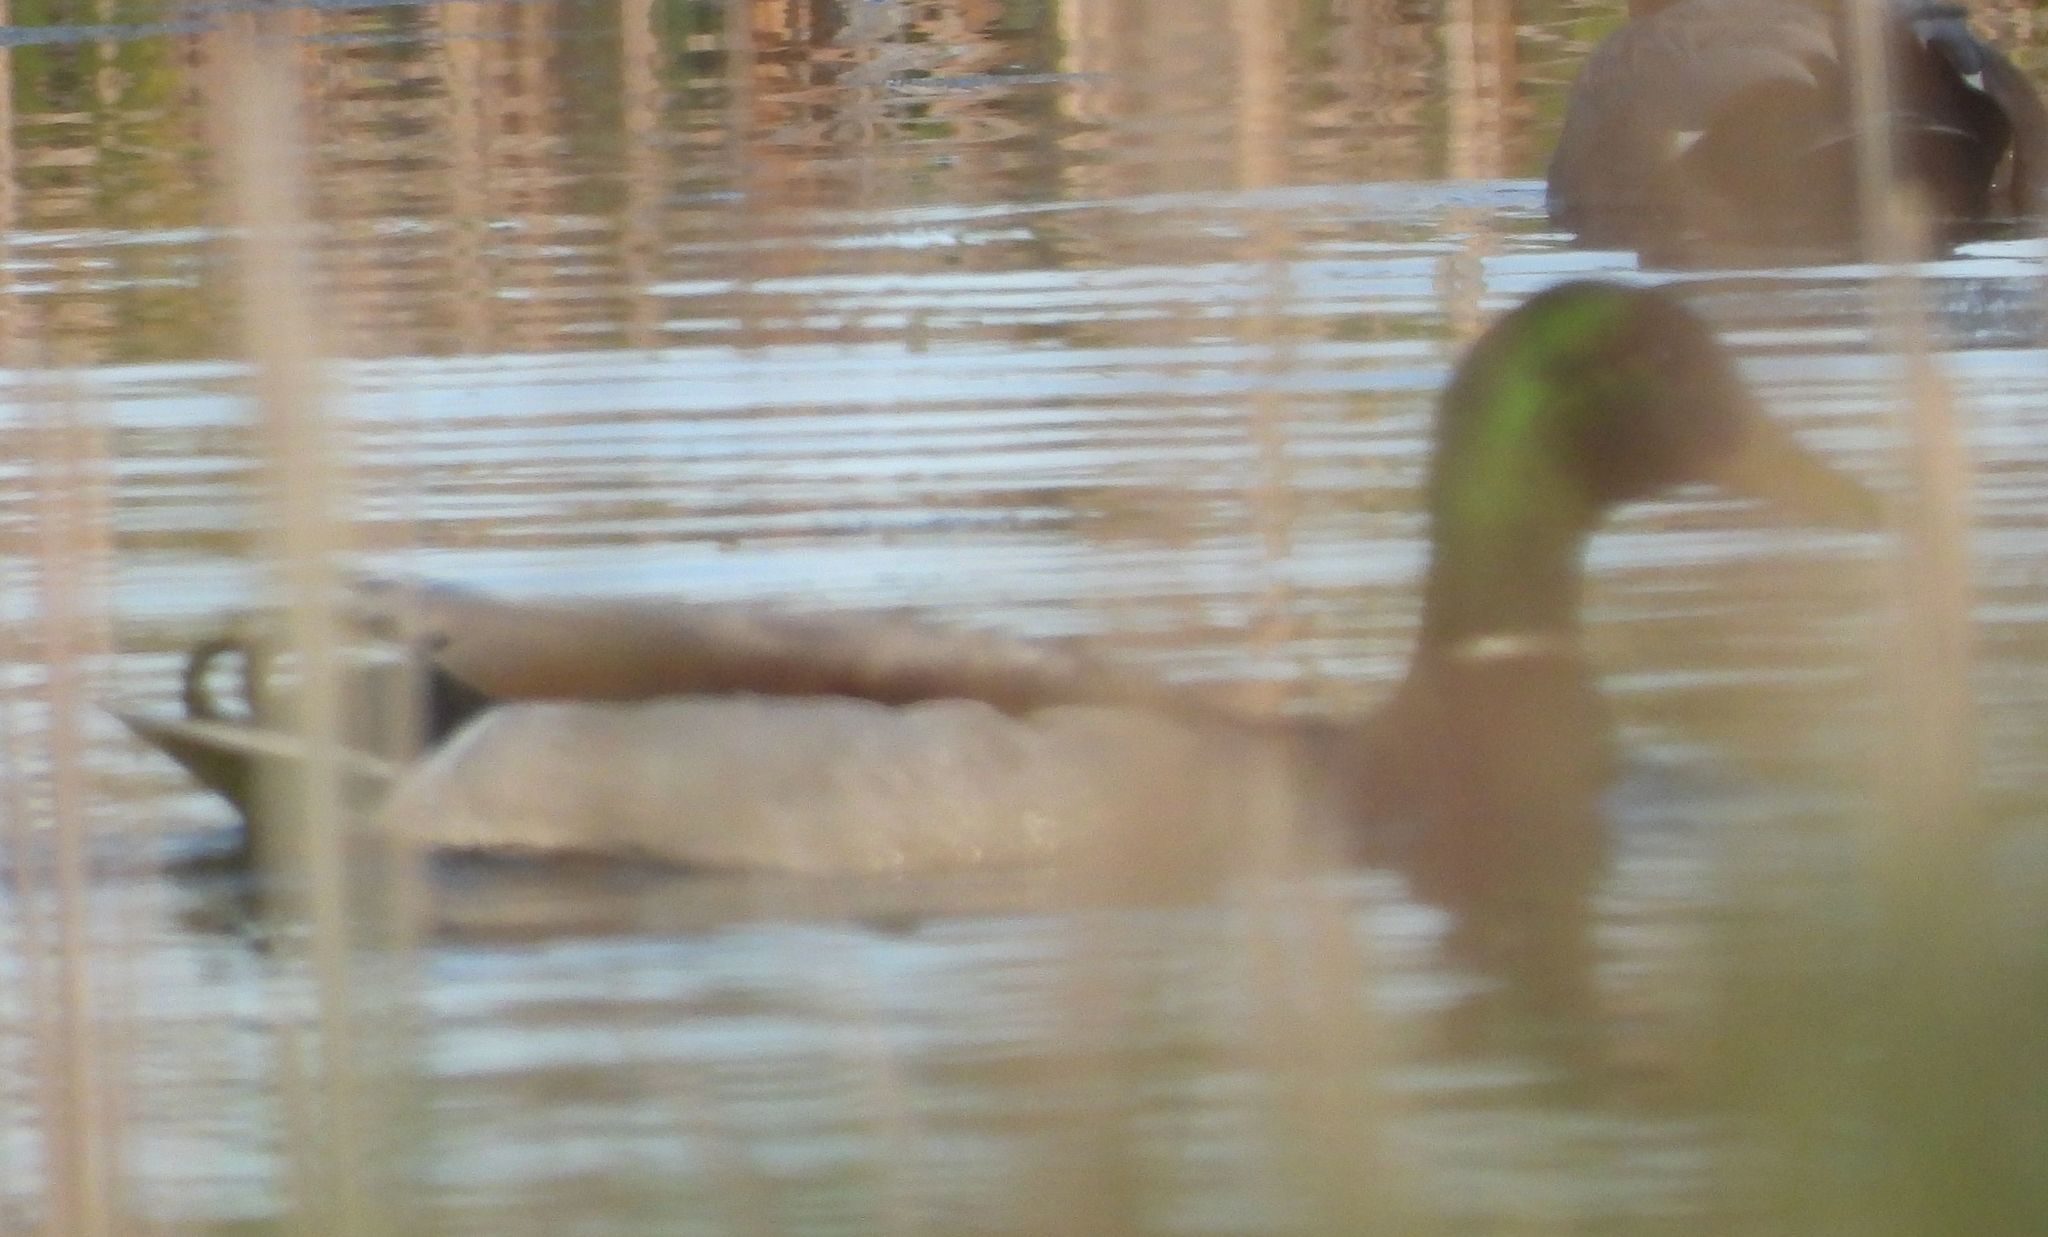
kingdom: Animalia
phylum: Chordata
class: Aves
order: Anseriformes
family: Anatidae
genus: Anas
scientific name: Anas platyrhynchos
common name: Mallard
